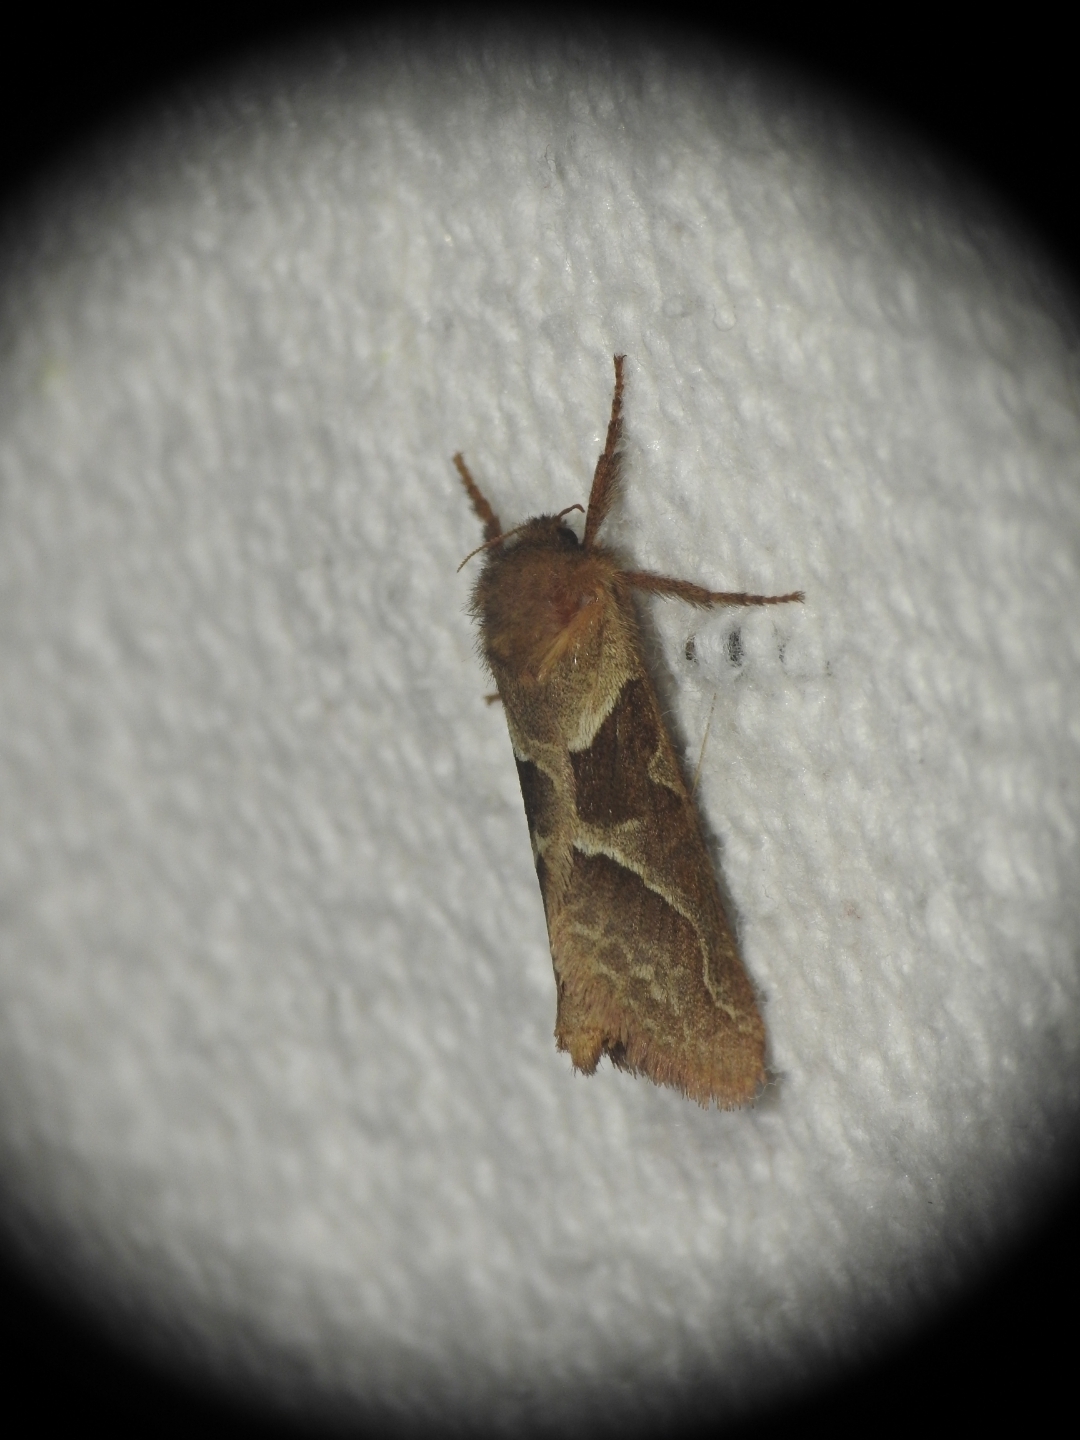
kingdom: Animalia
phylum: Arthropoda
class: Insecta
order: Lepidoptera
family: Hepialidae
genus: Triodia
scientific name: Triodia sylvina
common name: Orange swift
